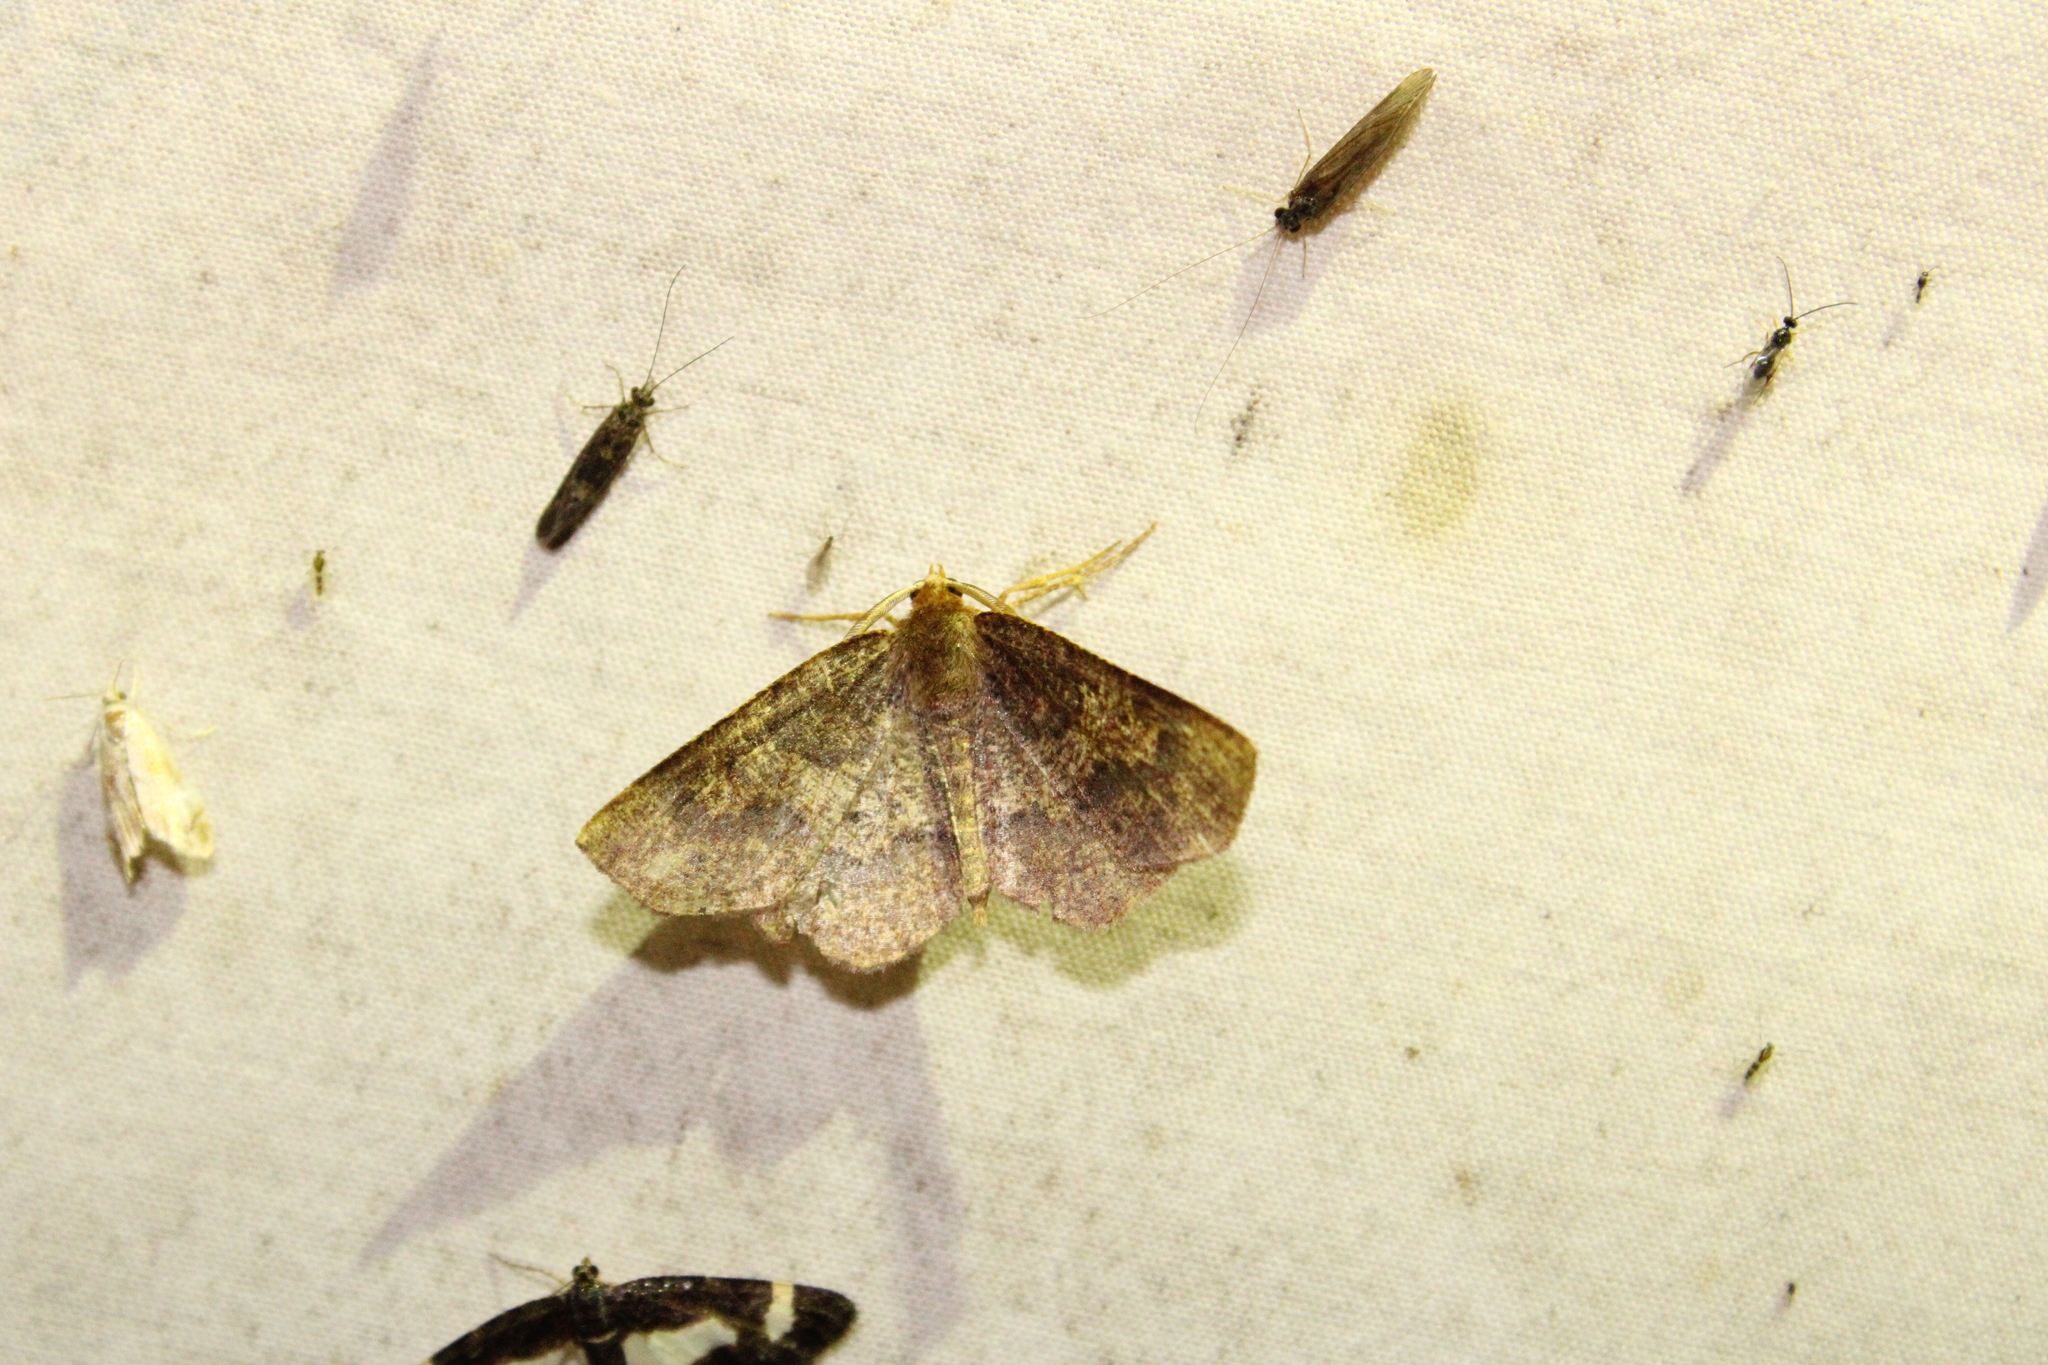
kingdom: Animalia
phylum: Arthropoda
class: Insecta
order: Lepidoptera
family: Geometridae
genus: Metarranthis
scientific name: Metarranthis angularia
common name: Angled metarranthis moth
